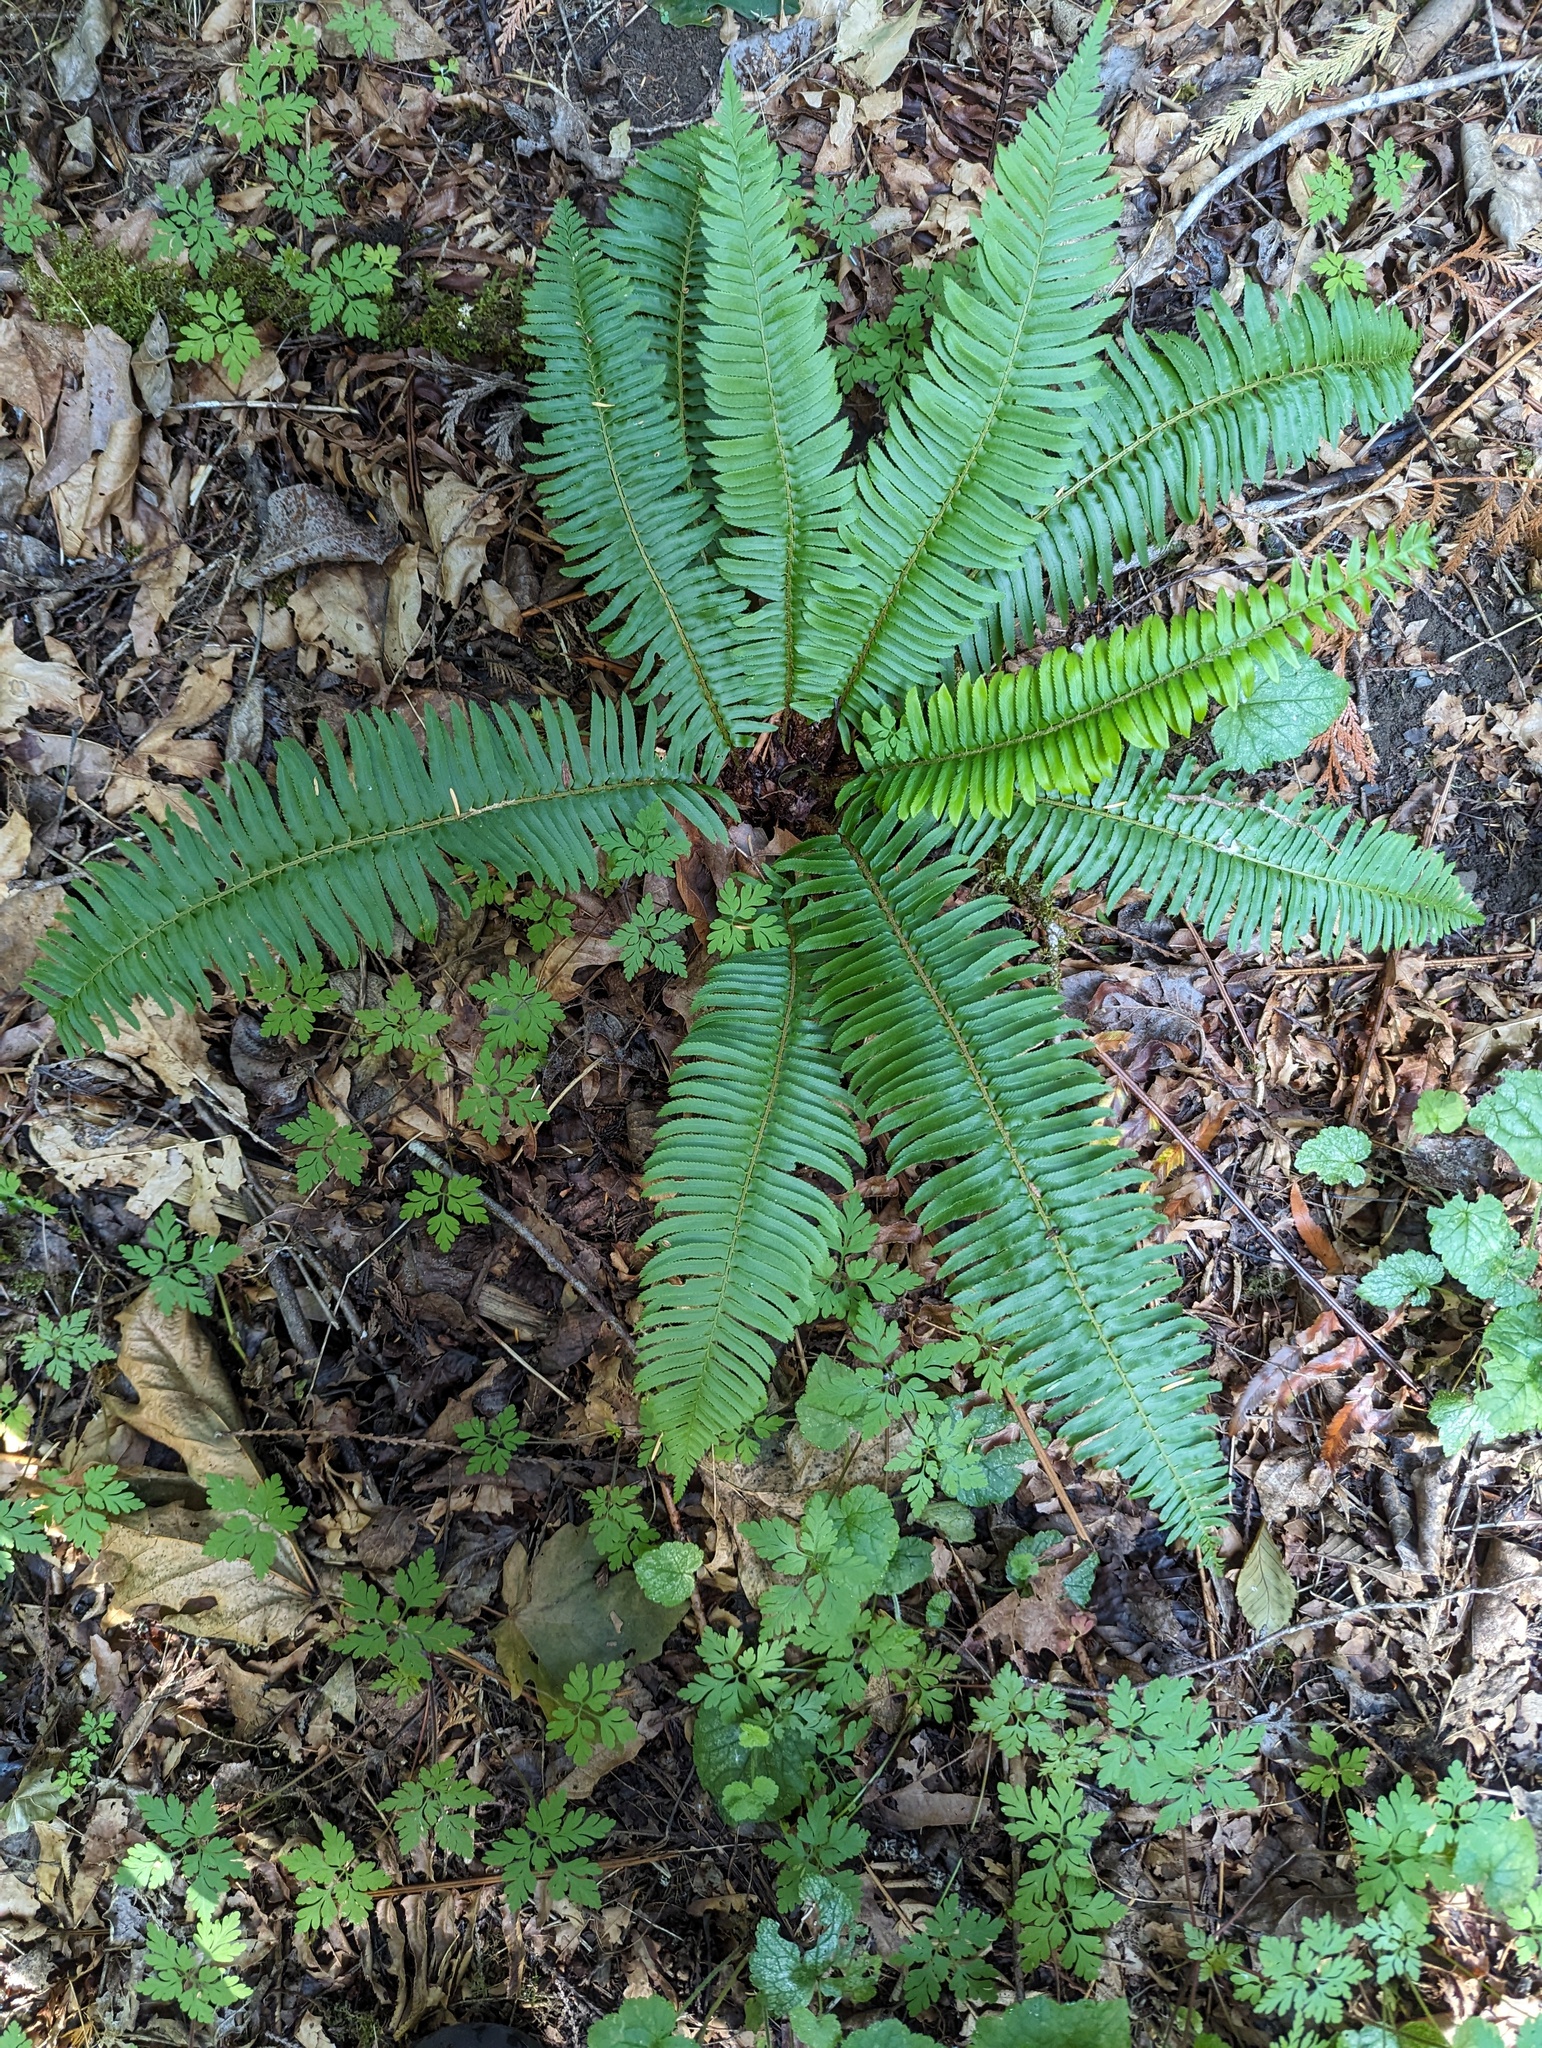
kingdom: Plantae
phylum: Tracheophyta
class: Polypodiopsida
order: Polypodiales
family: Dryopteridaceae
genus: Polystichum
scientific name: Polystichum munitum
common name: Western sword-fern
